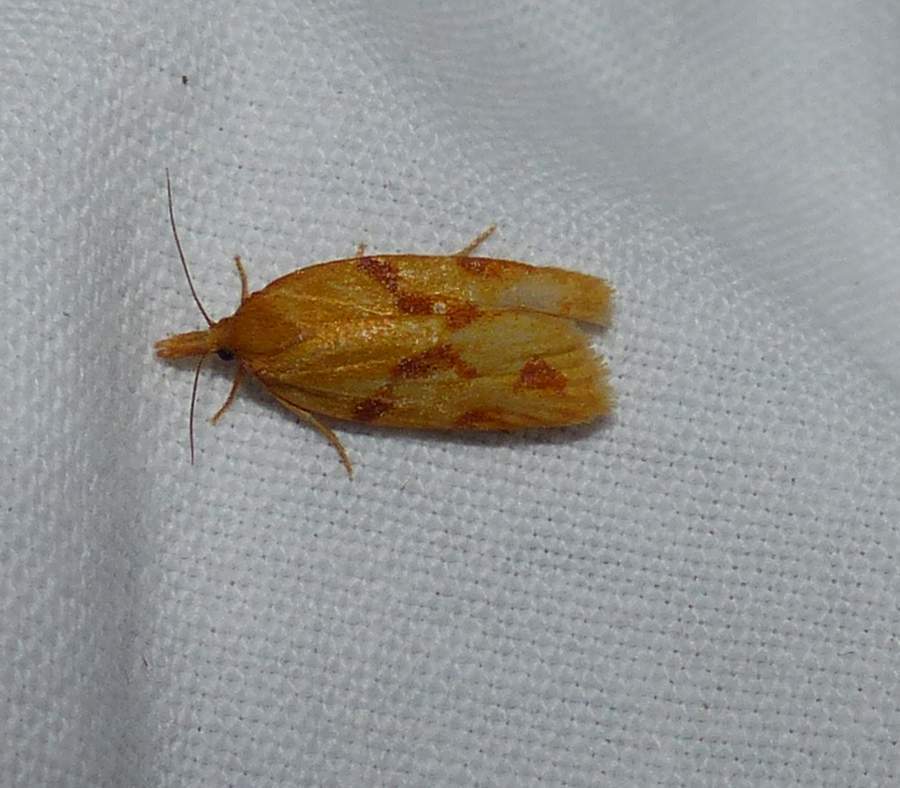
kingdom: Animalia
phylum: Arthropoda
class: Insecta
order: Lepidoptera
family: Tortricidae
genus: Sparganothis
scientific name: Sparganothis unifasciana
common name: One-lined sparganothis moth
